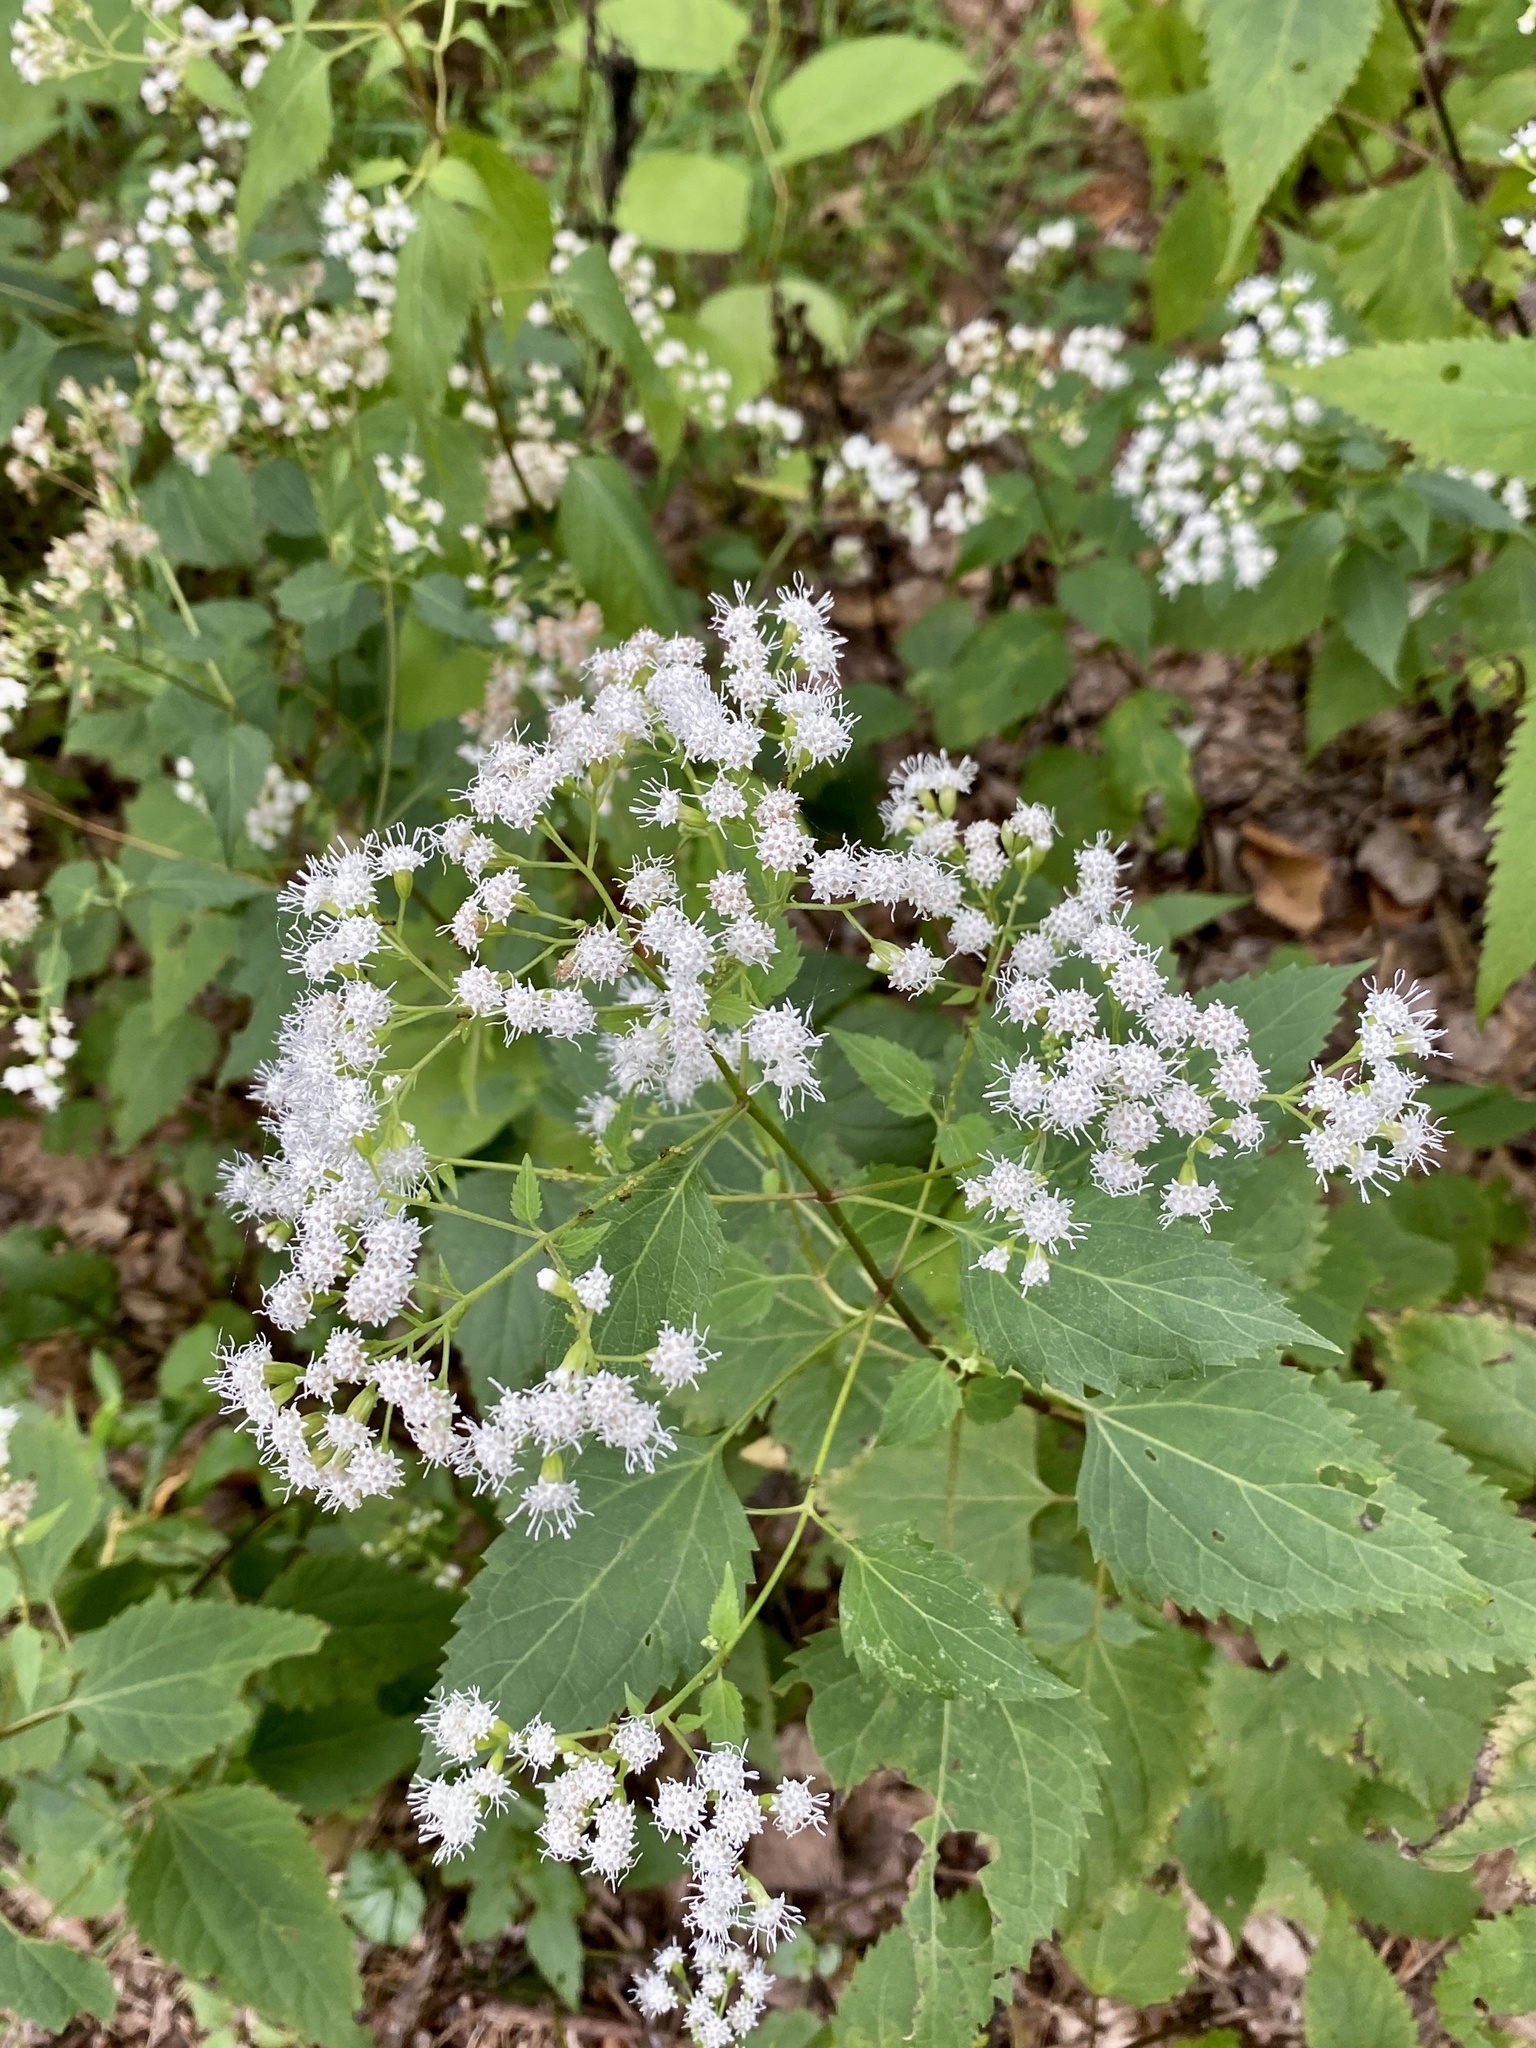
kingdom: Plantae
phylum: Tracheophyta
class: Magnoliopsida
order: Asterales
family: Asteraceae
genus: Ageratina
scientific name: Ageratina altissima
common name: White snakeroot
